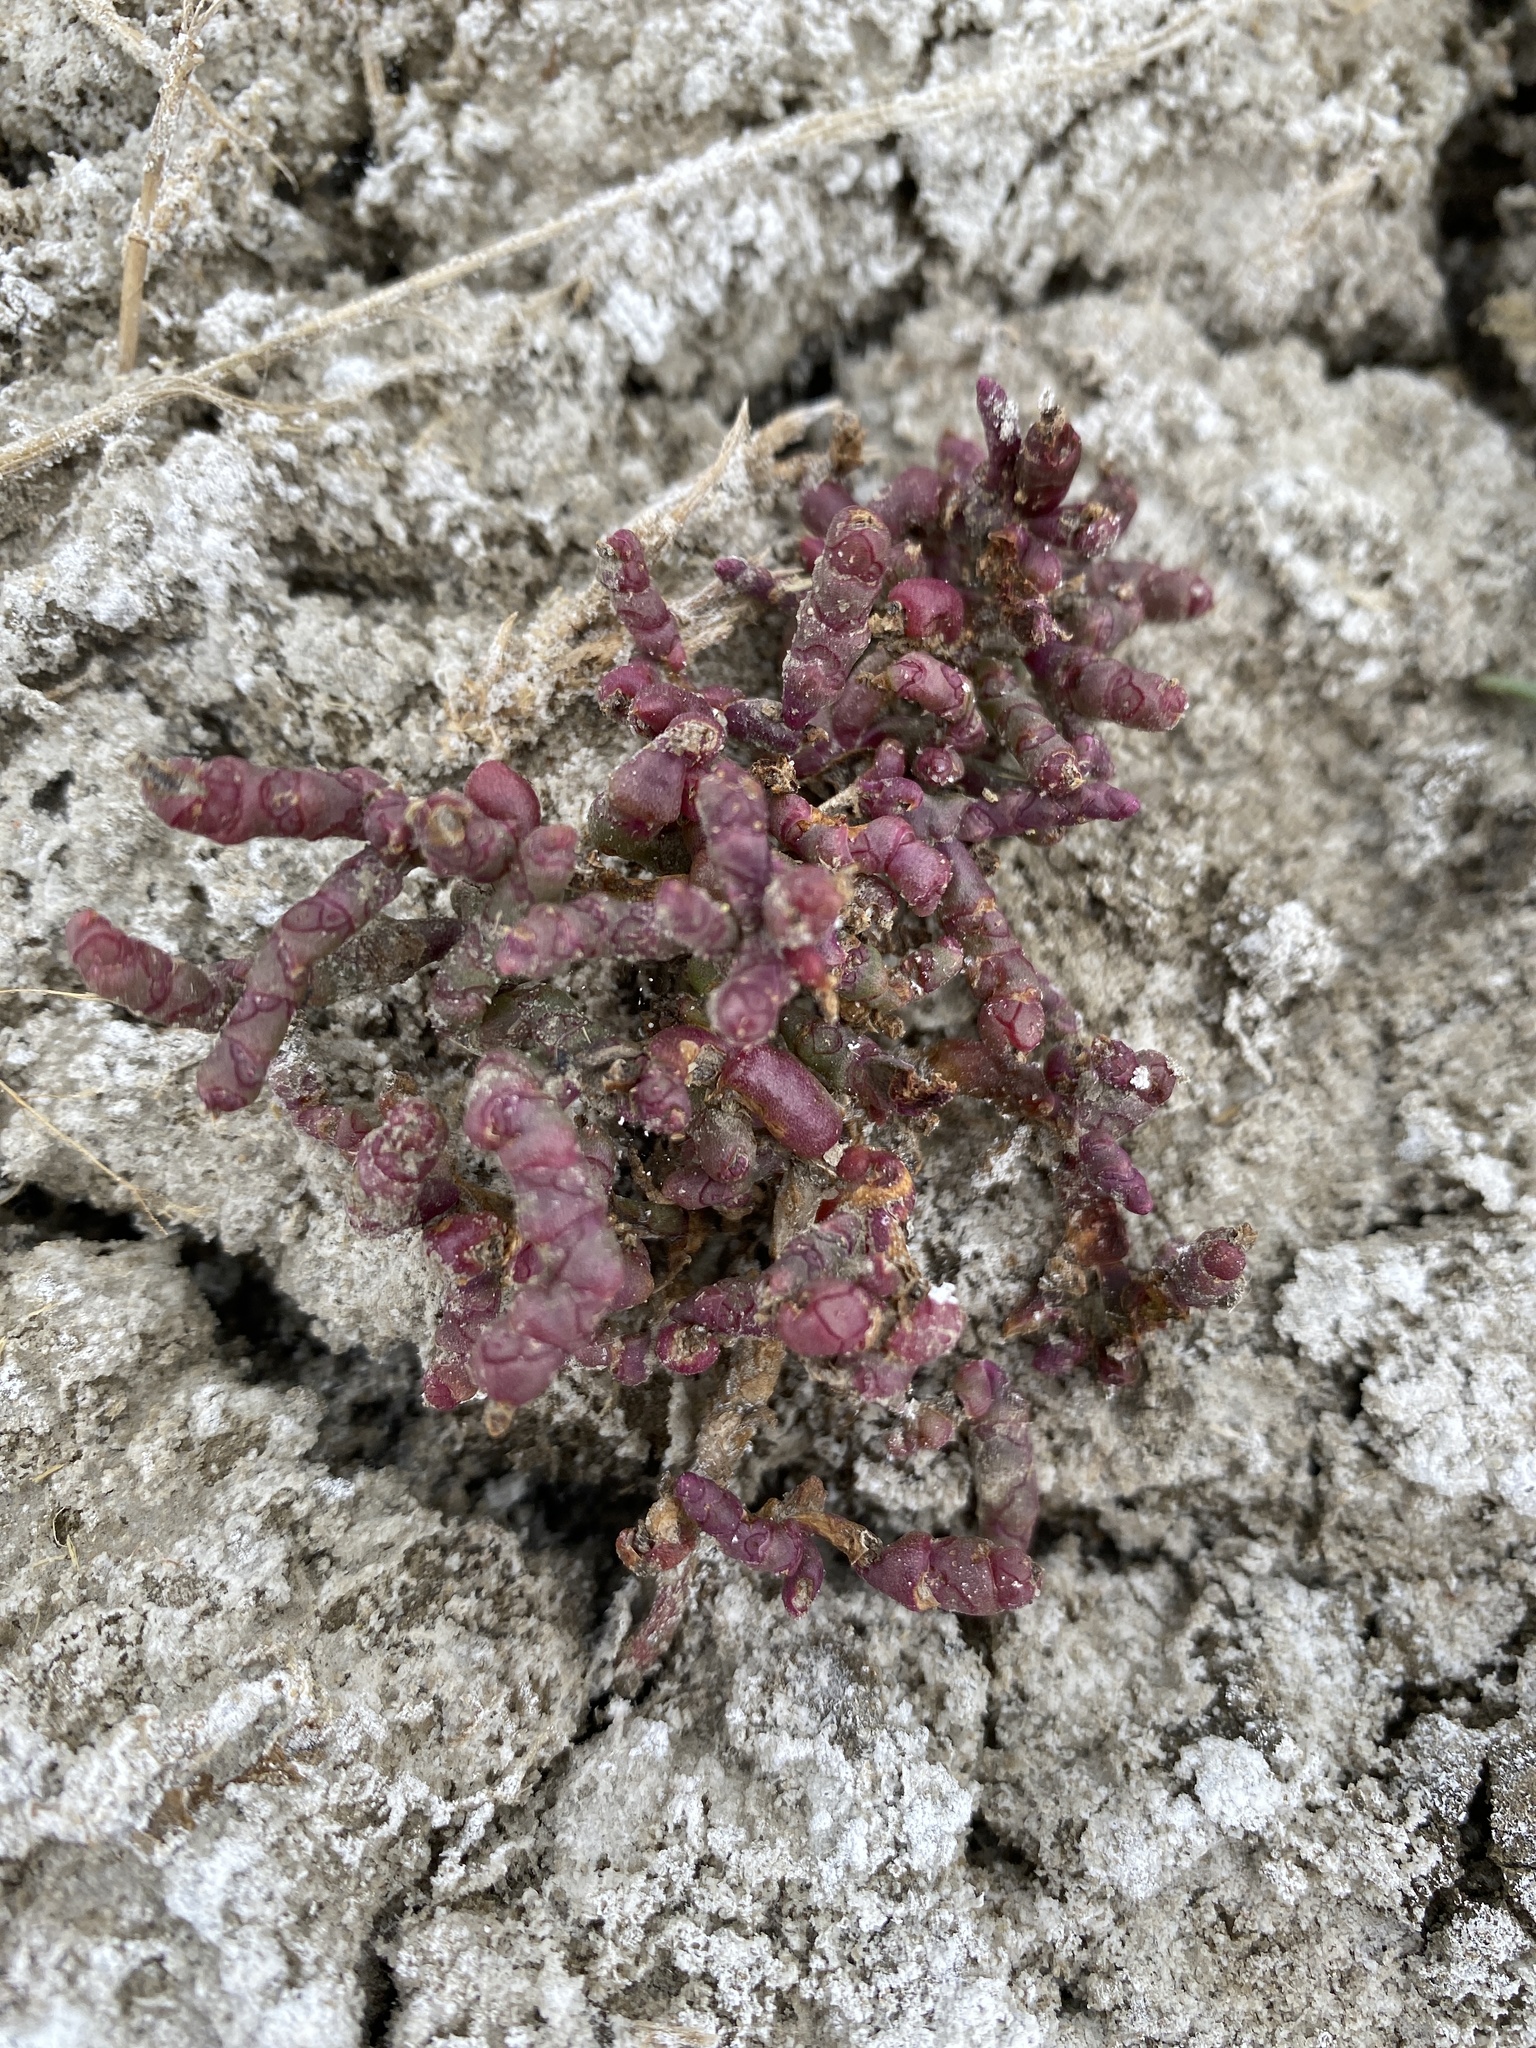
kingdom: Plantae
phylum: Tracheophyta
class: Magnoliopsida
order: Caryophyllales
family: Amaranthaceae
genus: Salicornia
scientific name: Salicornia rubra
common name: Red glasswort
